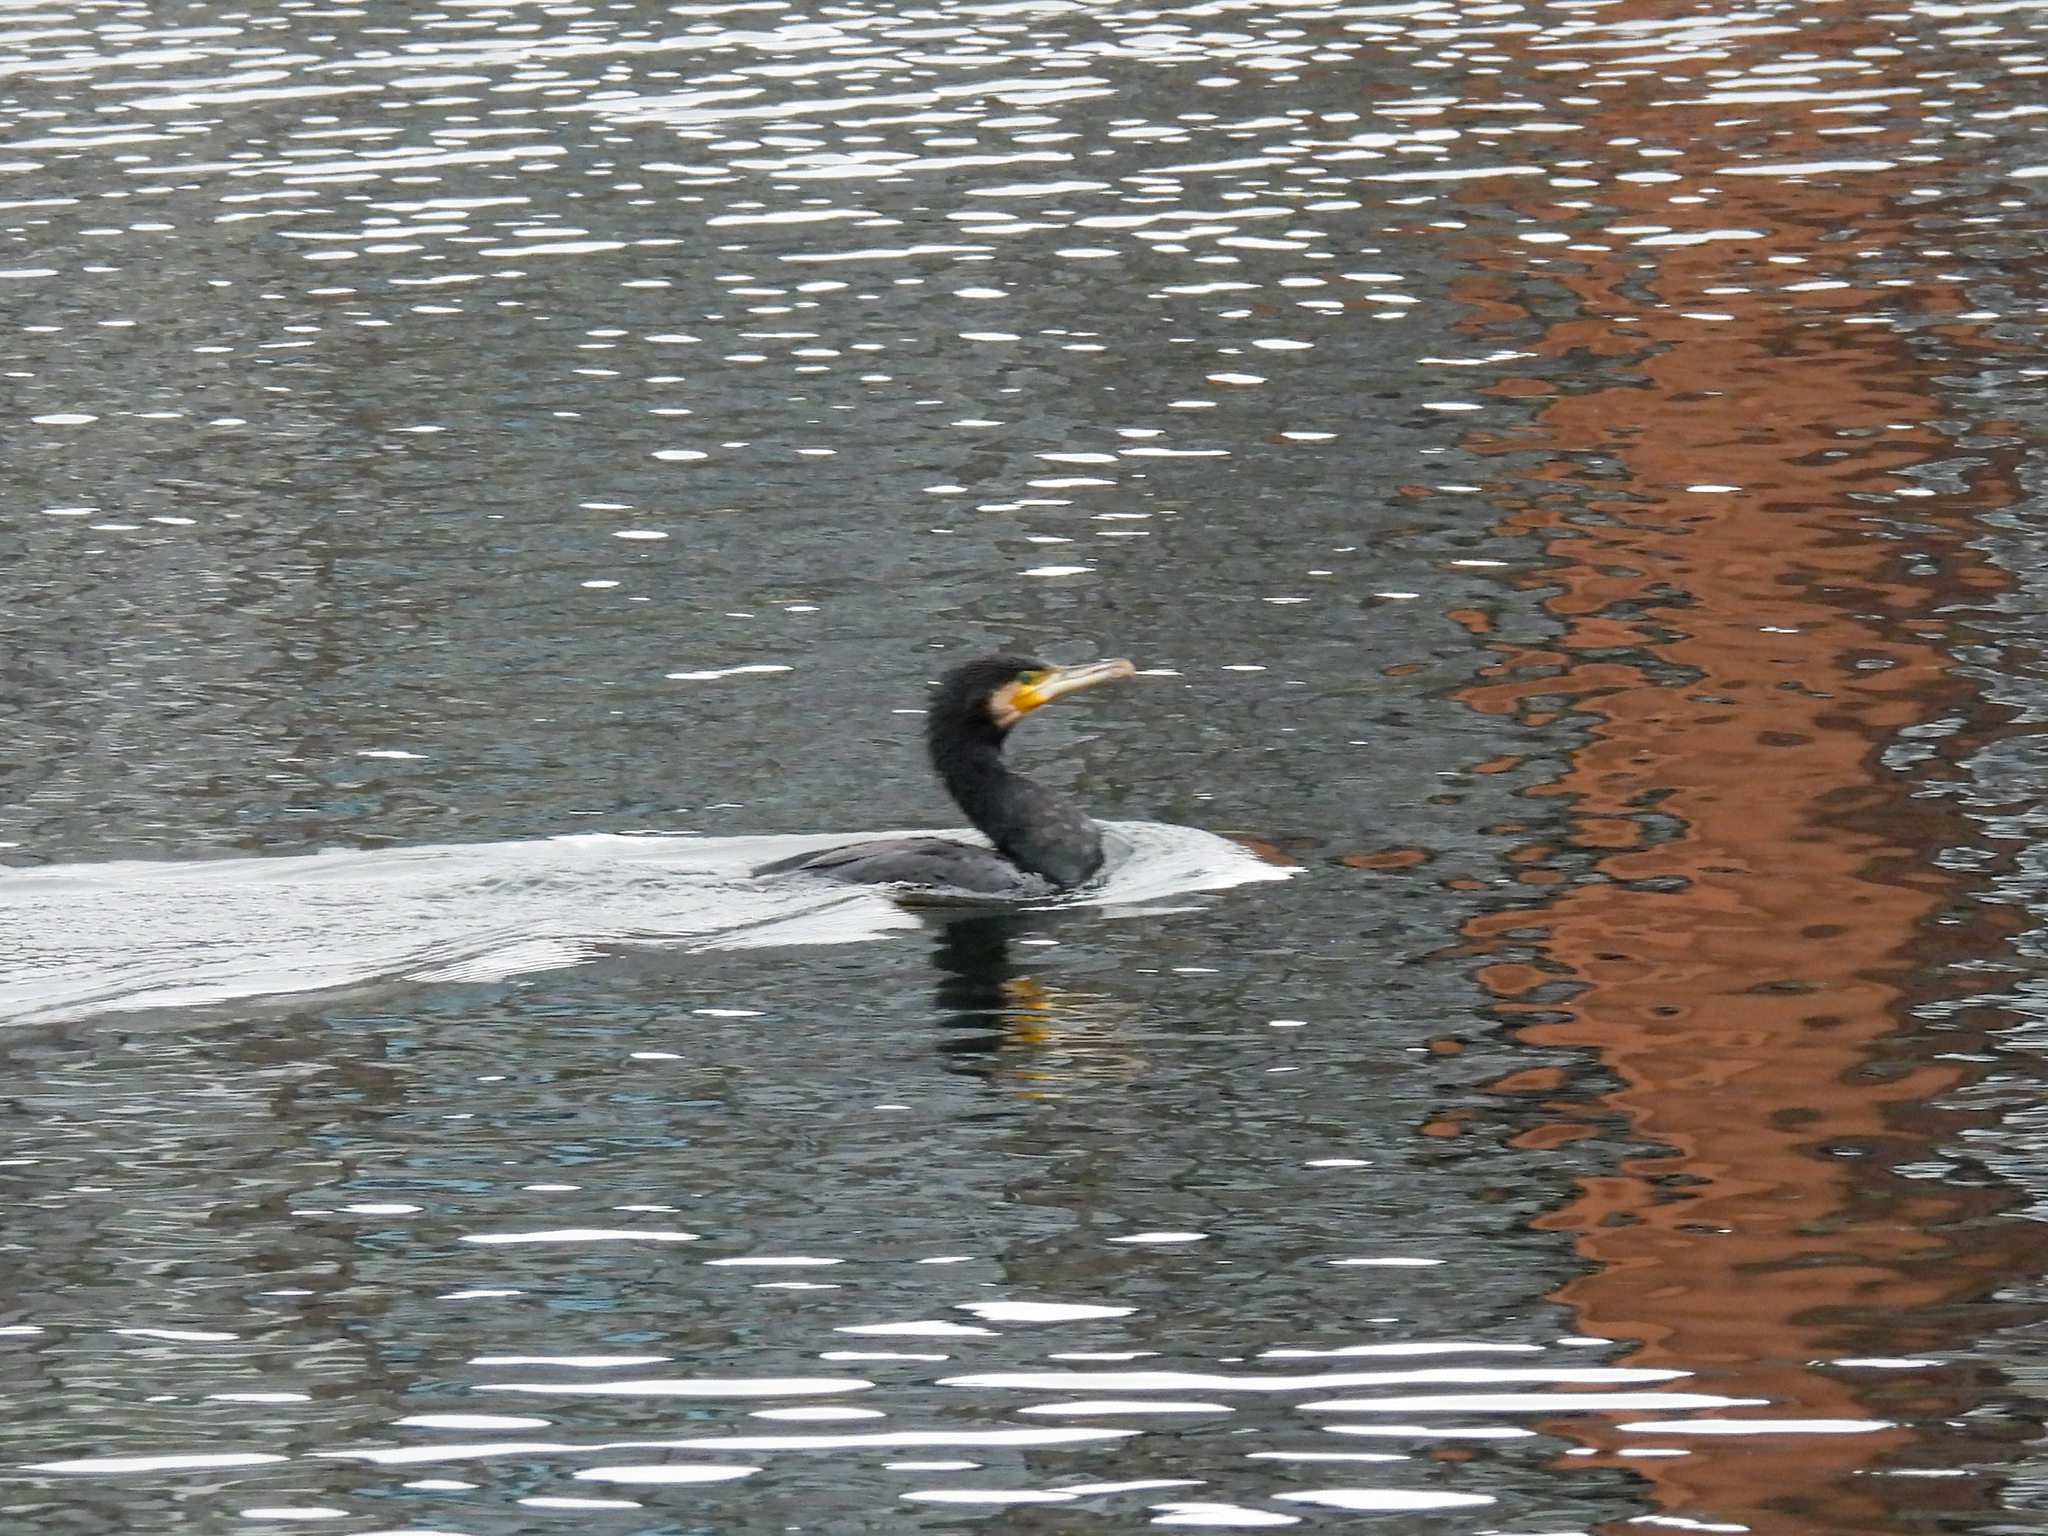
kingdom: Animalia
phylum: Chordata
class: Aves
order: Suliformes
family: Phalacrocoracidae
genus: Phalacrocorax
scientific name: Phalacrocorax carbo
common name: Great cormorant
